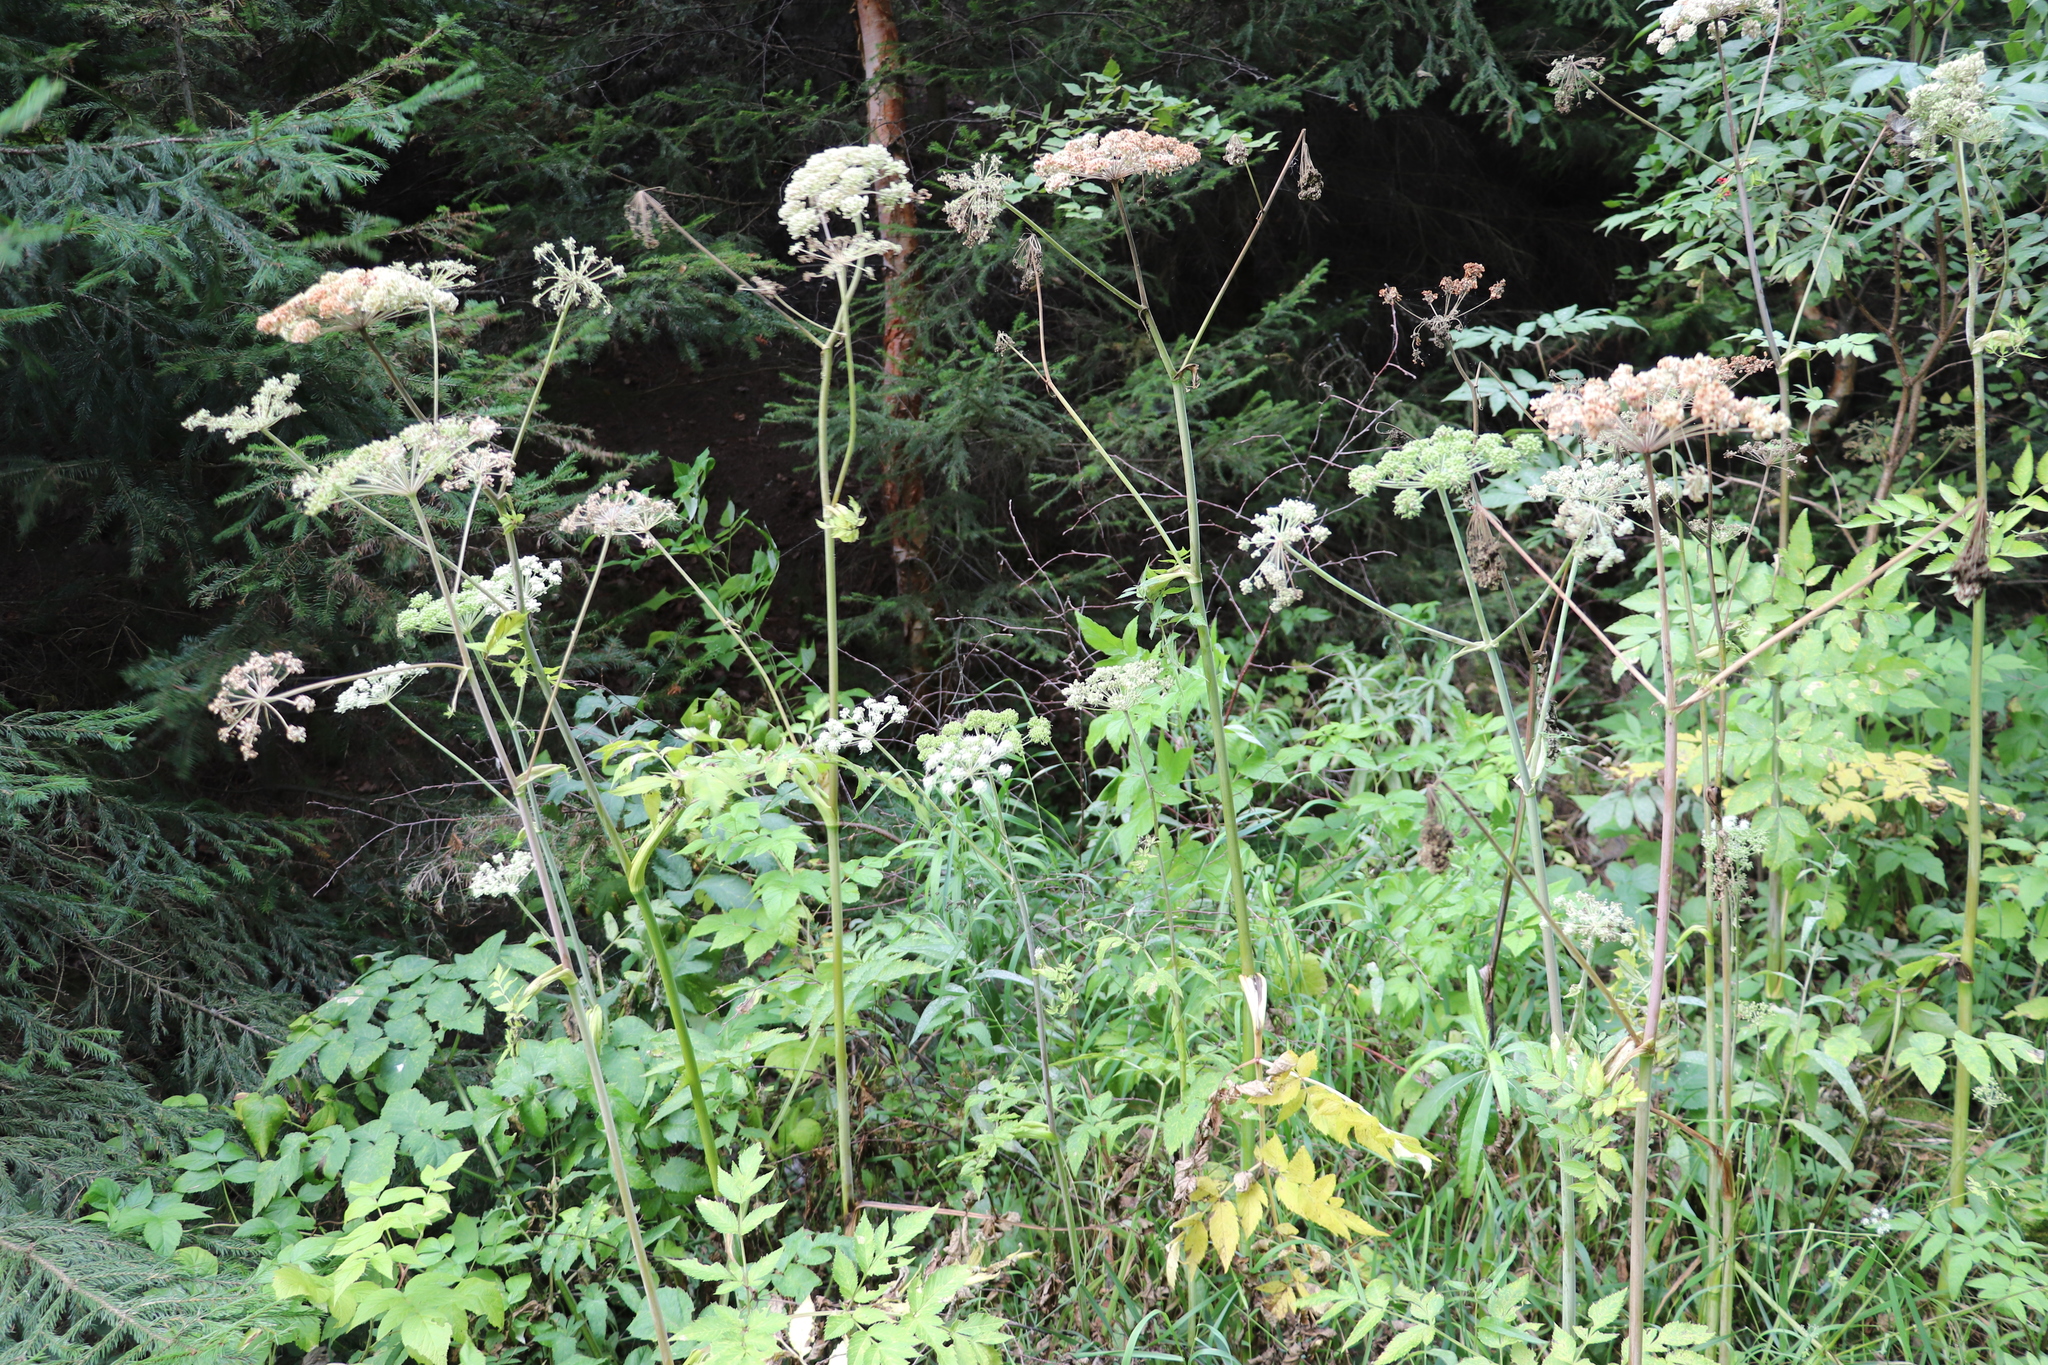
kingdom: Plantae
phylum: Tracheophyta
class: Magnoliopsida
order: Apiales
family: Apiaceae
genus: Angelica
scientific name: Angelica sylvestris
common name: Wild angelica
